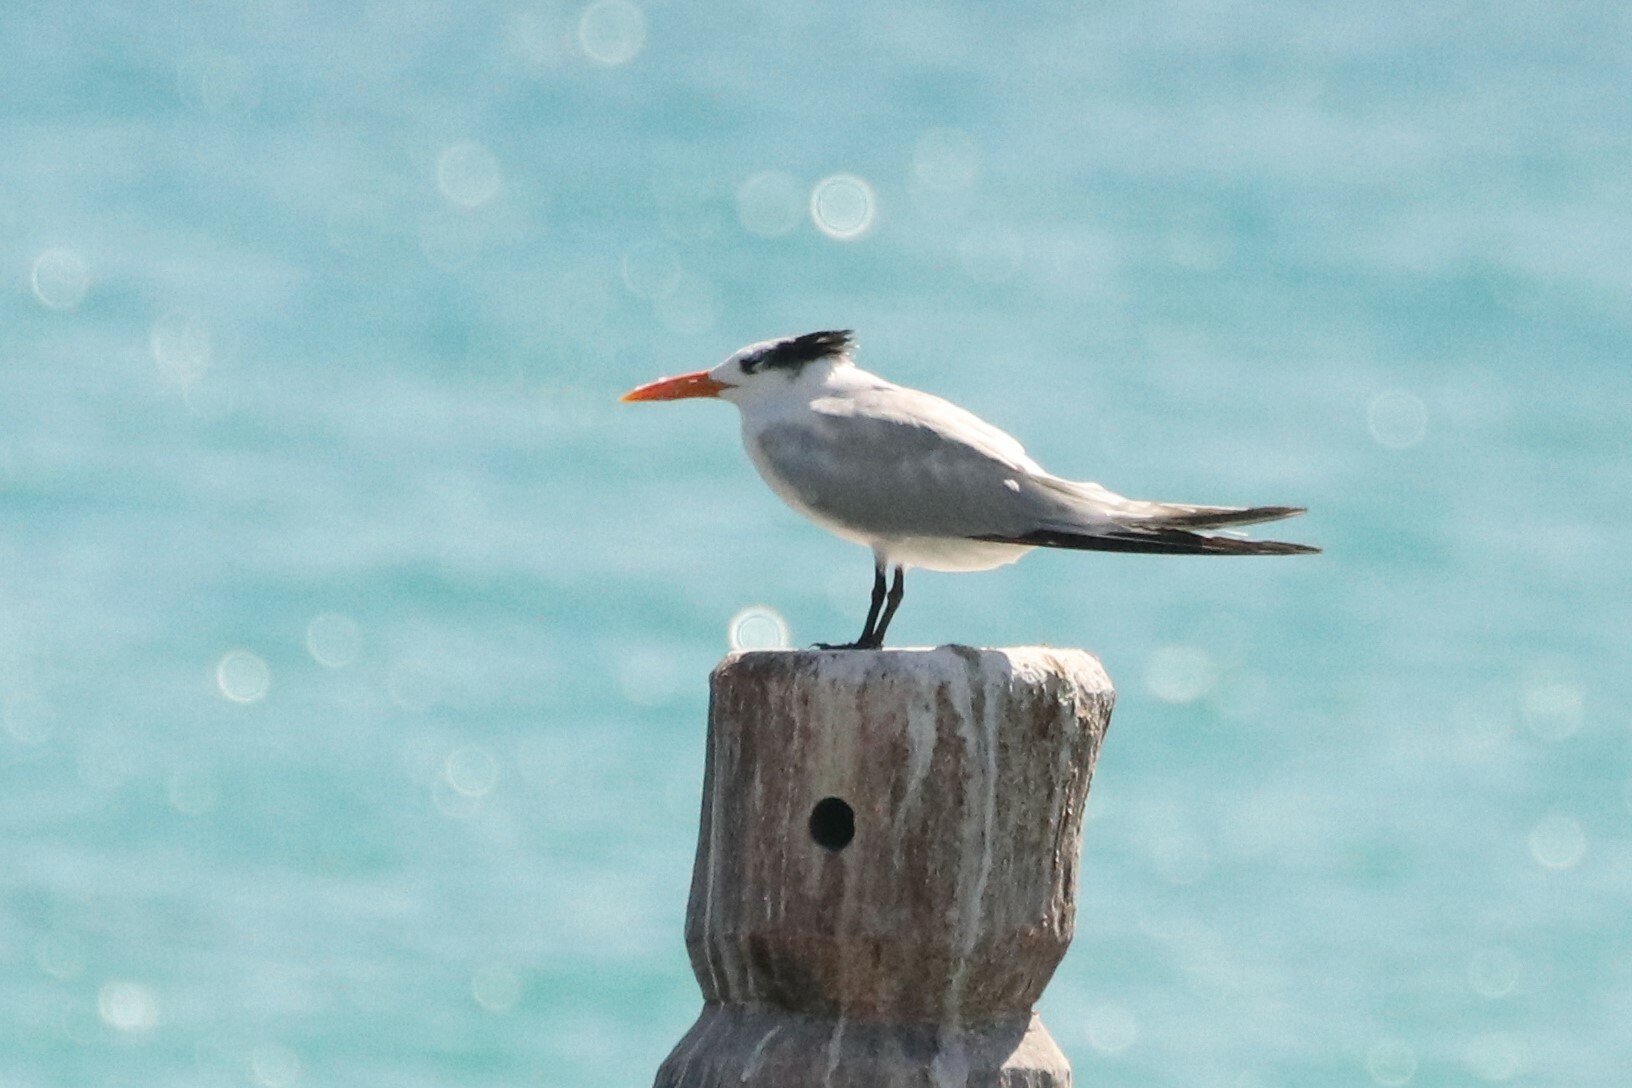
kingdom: Animalia
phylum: Chordata
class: Aves
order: Charadriiformes
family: Laridae
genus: Thalasseus
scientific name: Thalasseus maximus
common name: Royal tern
